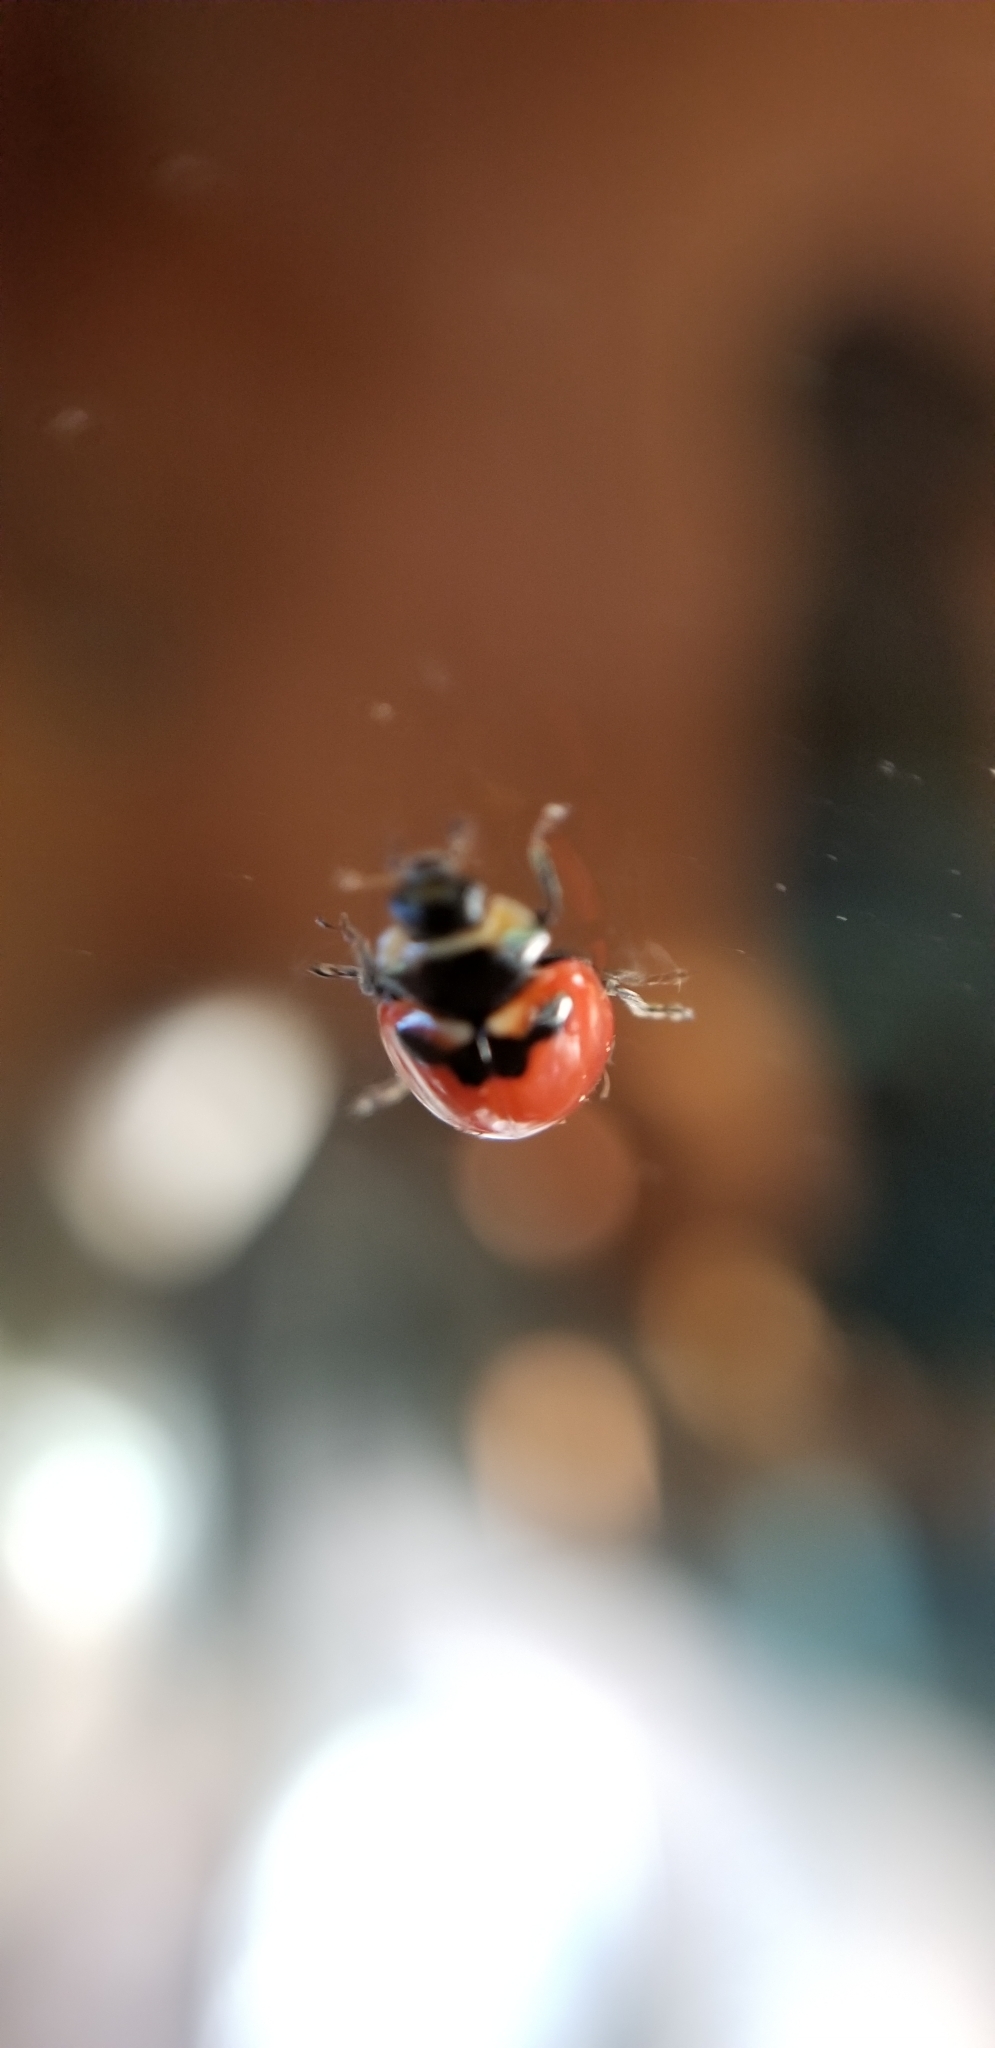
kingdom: Animalia
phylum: Arthropoda
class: Insecta
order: Coleoptera
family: Coccinellidae
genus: Coccinella
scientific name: Coccinella trifasciata
